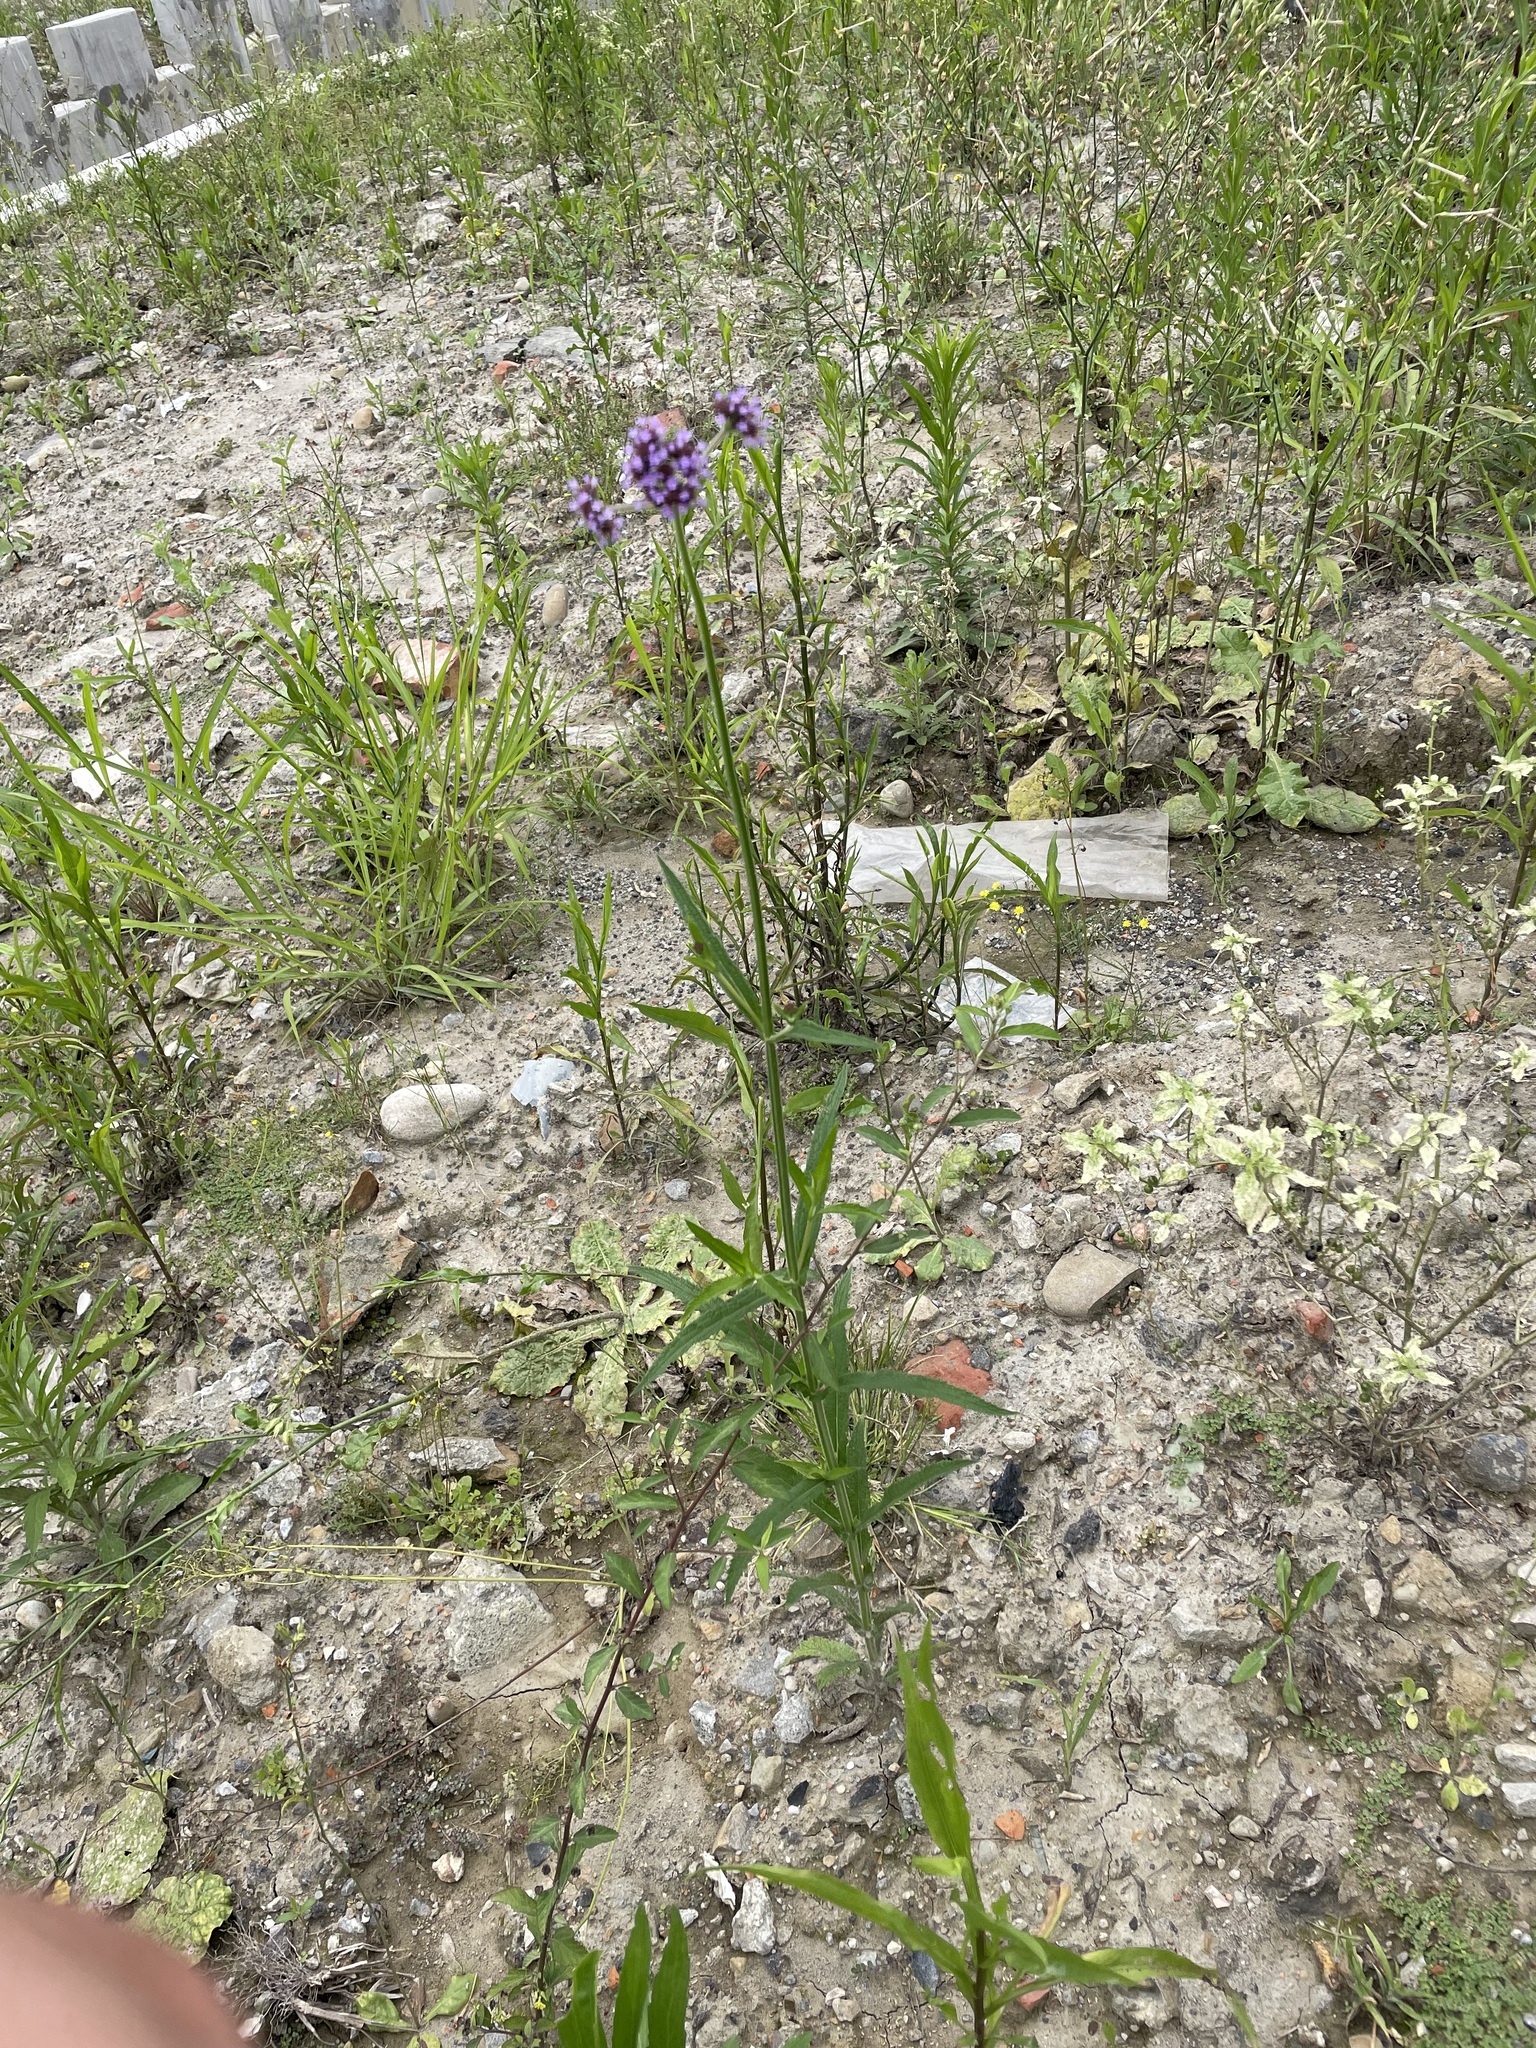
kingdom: Plantae
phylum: Tracheophyta
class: Magnoliopsida
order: Lamiales
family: Verbenaceae
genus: Verbena
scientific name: Verbena bonariensis
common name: Purpletop vervain
